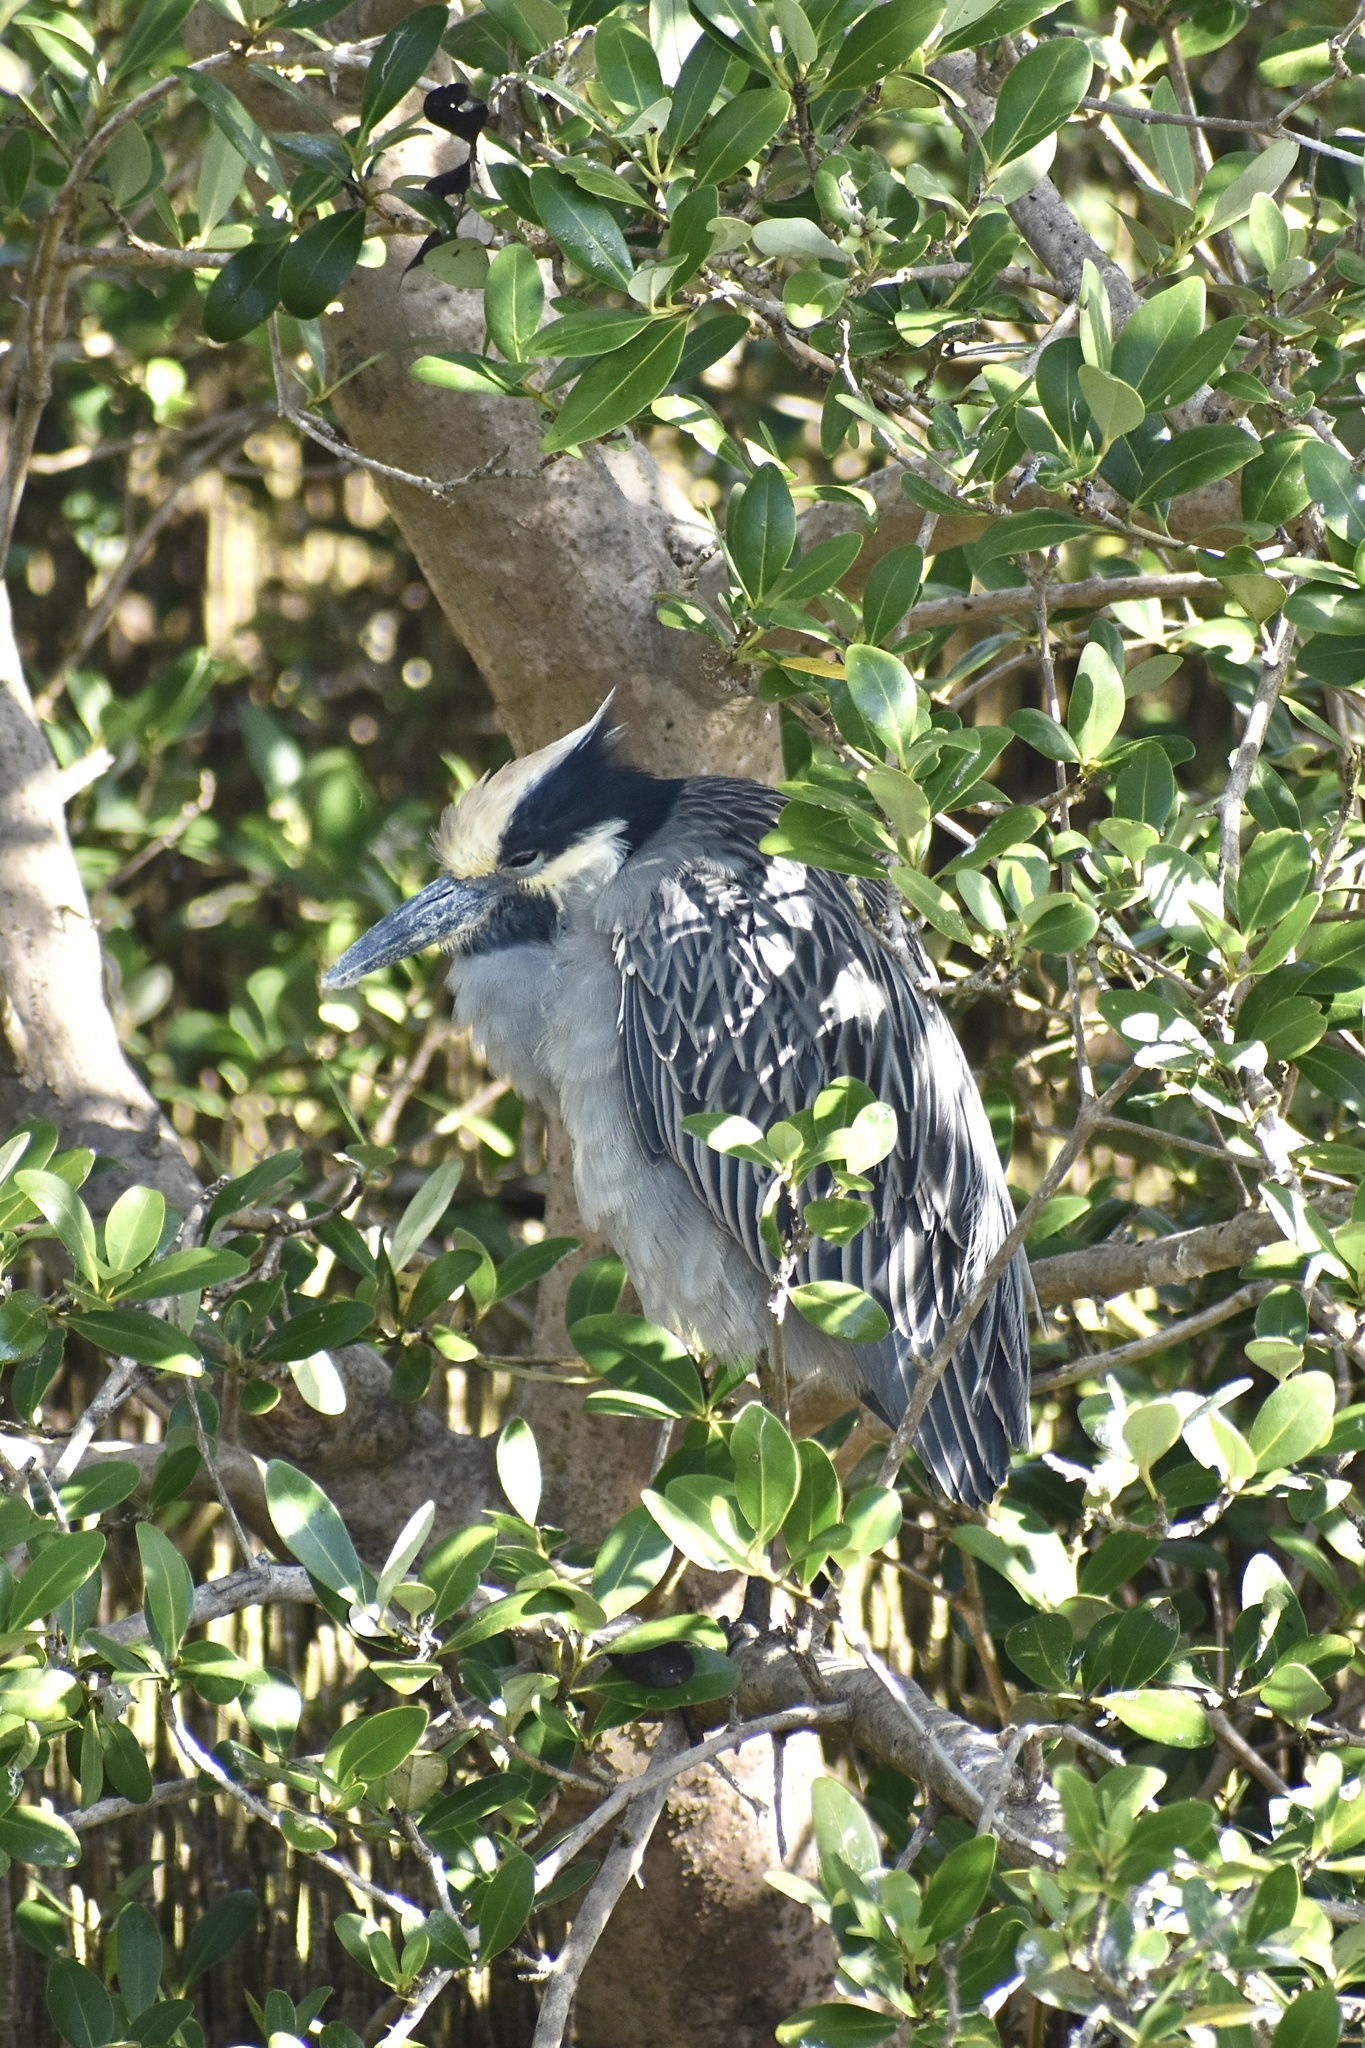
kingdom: Animalia
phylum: Chordata
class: Aves
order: Pelecaniformes
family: Ardeidae
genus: Nyctanassa
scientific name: Nyctanassa violacea
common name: Yellow-crowned night heron
